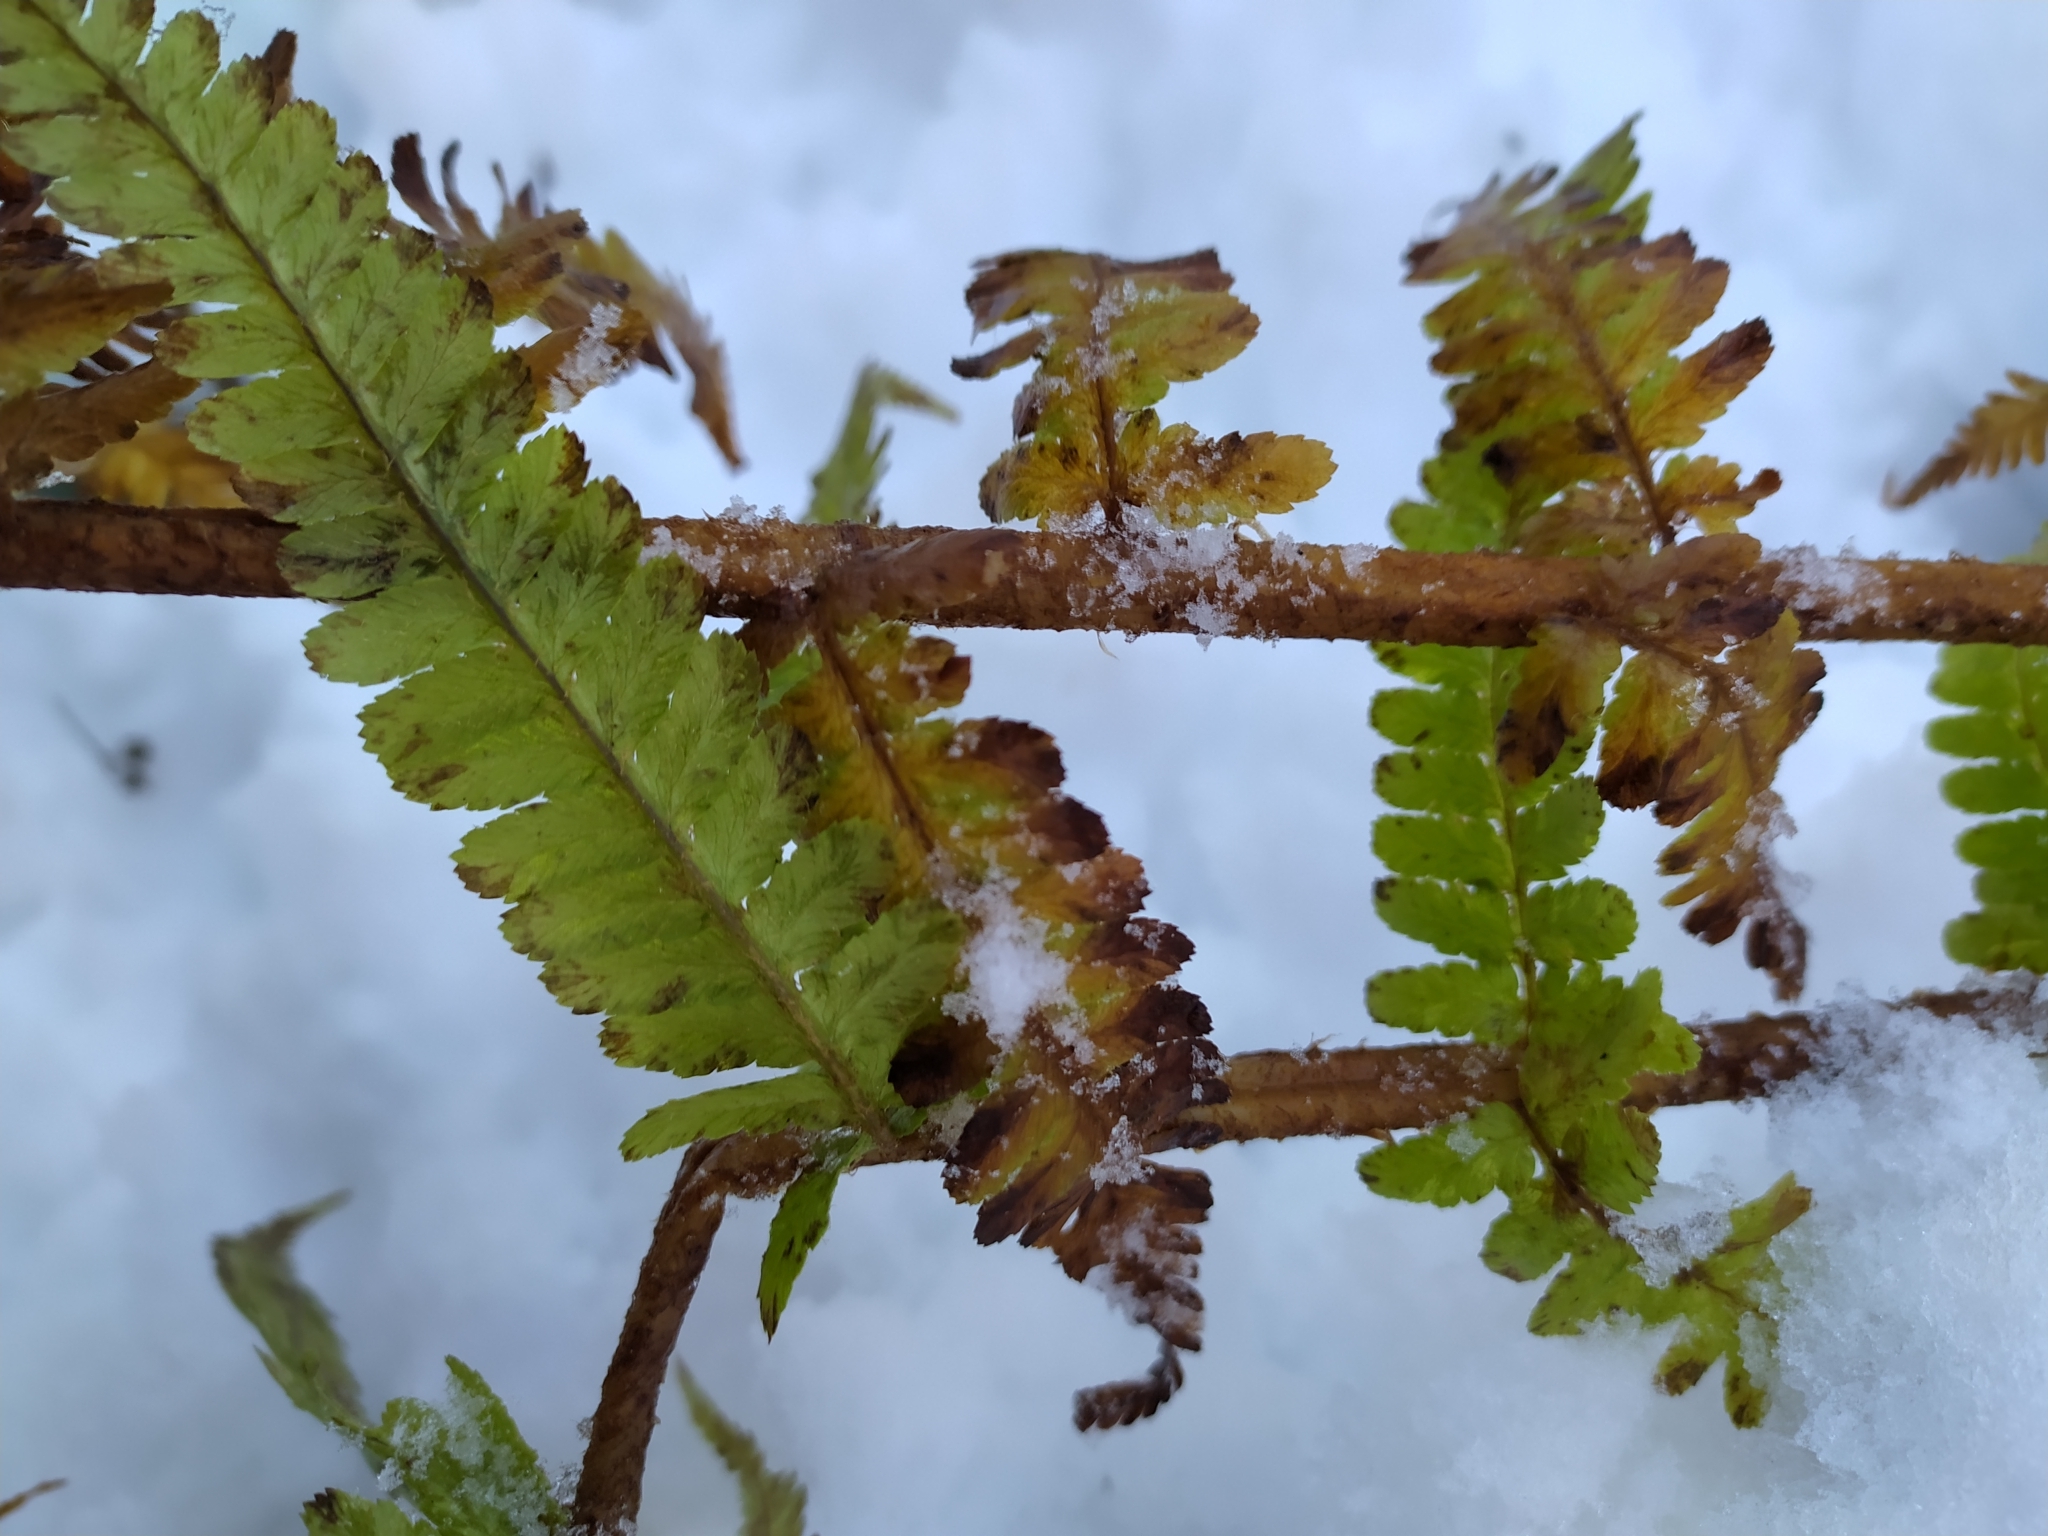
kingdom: Plantae
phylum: Tracheophyta
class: Polypodiopsida
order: Polypodiales
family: Dryopteridaceae
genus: Dryopteris
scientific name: Dryopteris filix-mas
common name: Male fern
